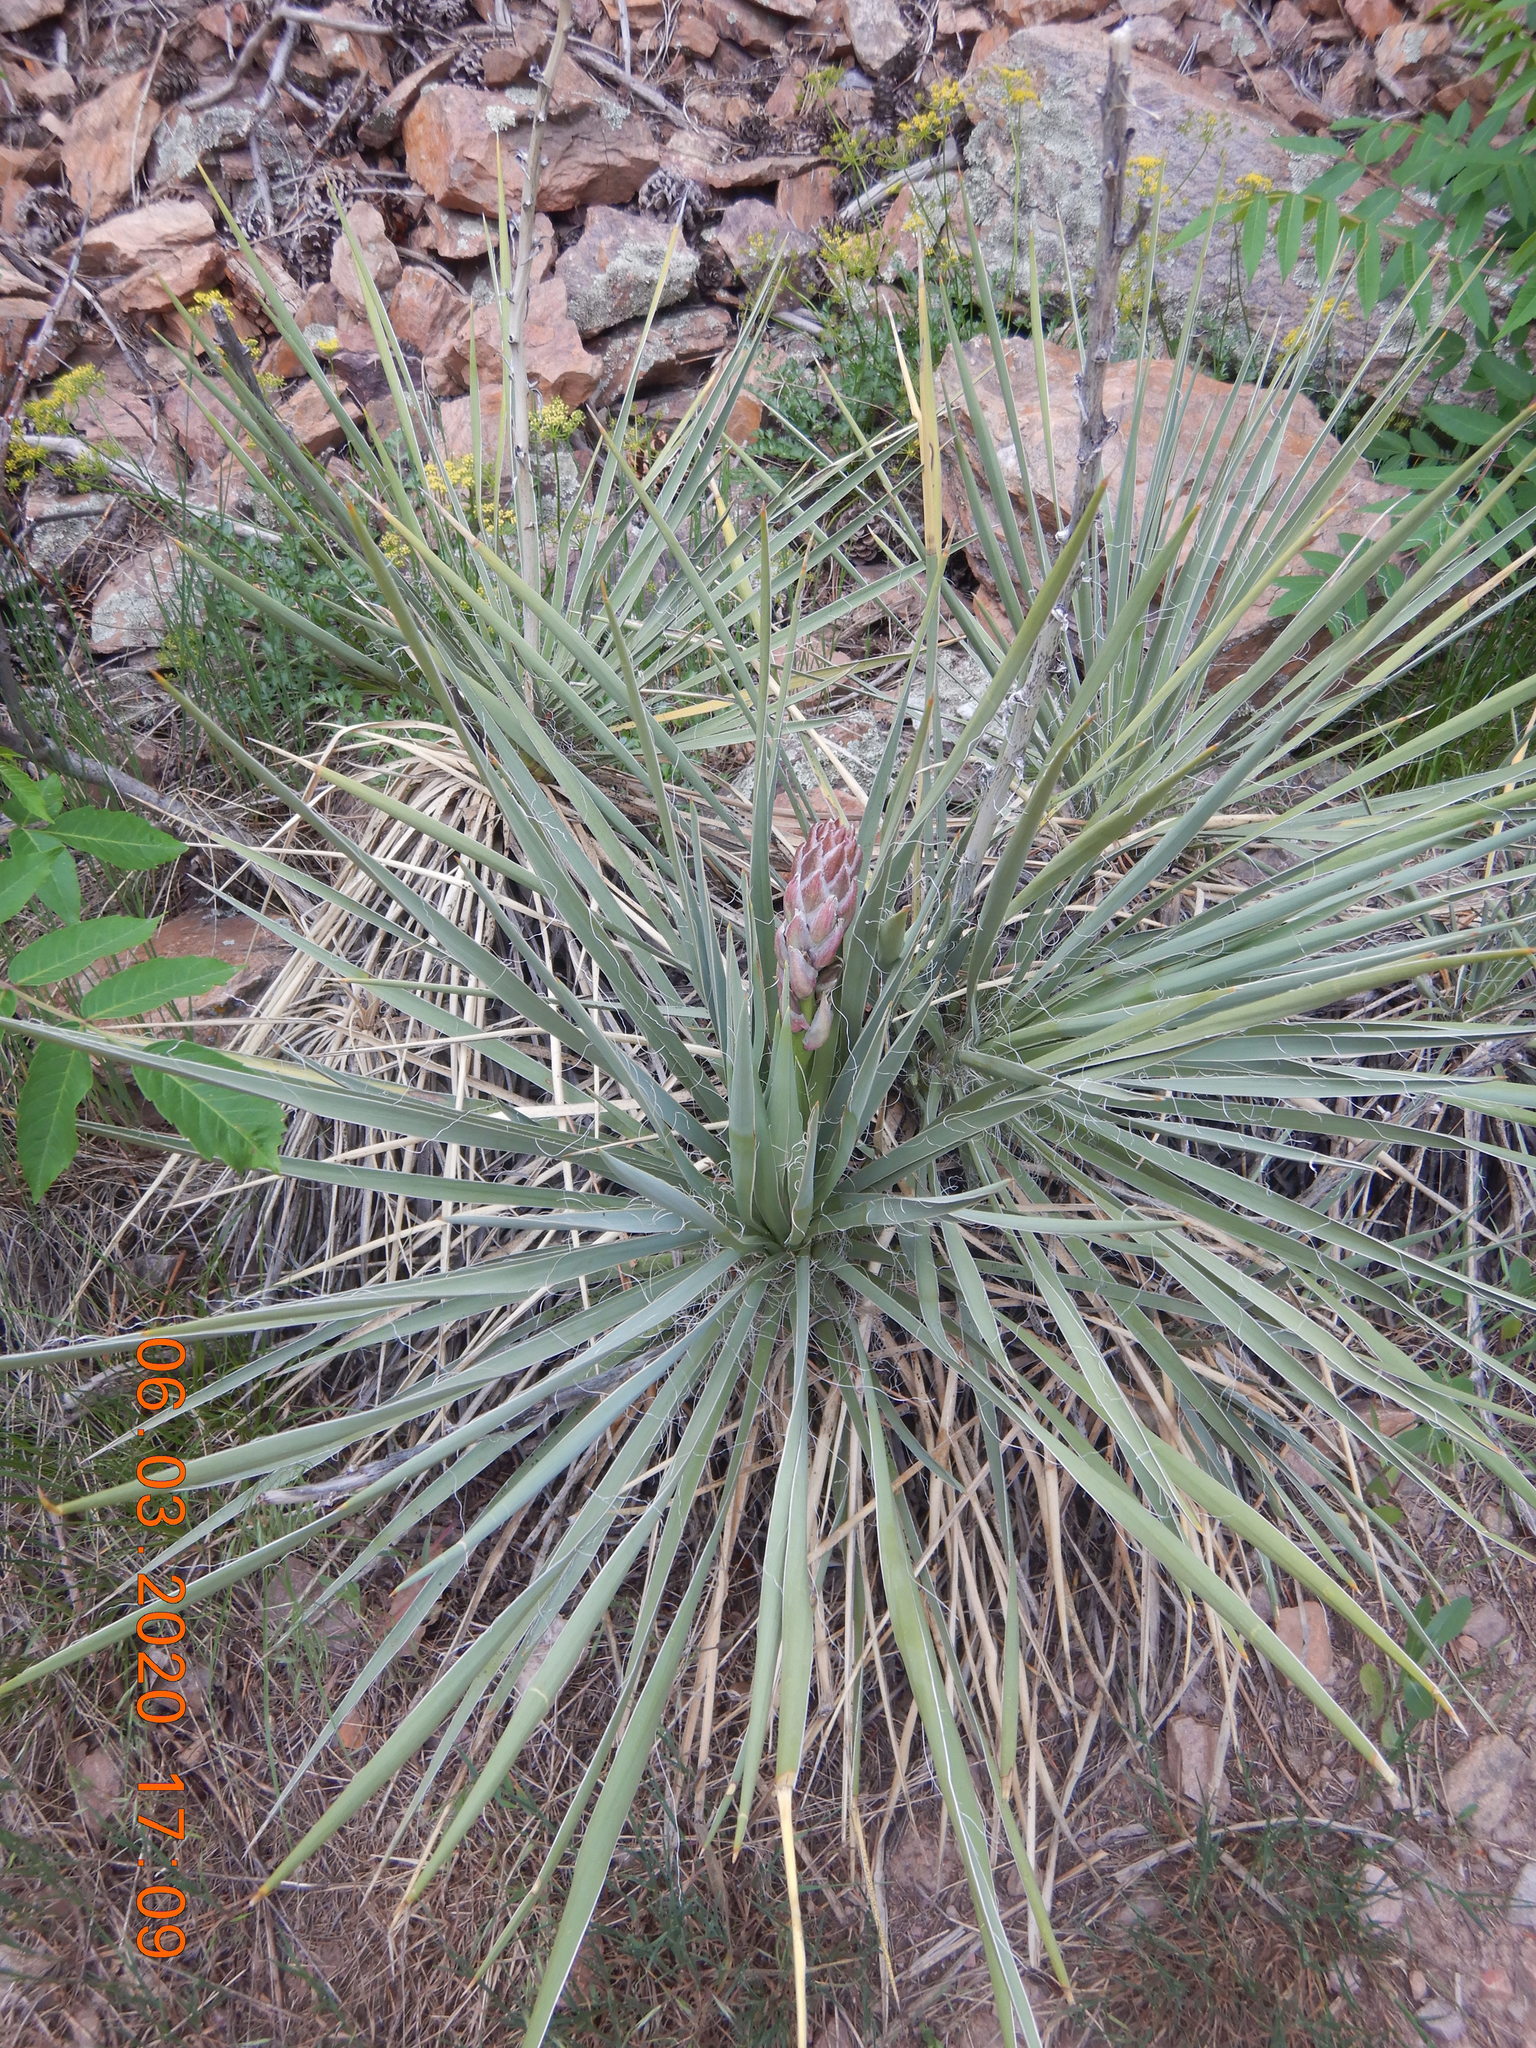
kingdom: Plantae
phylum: Tracheophyta
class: Liliopsida
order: Asparagales
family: Asparagaceae
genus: Yucca
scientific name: Yucca glauca
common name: Great plains yucca
